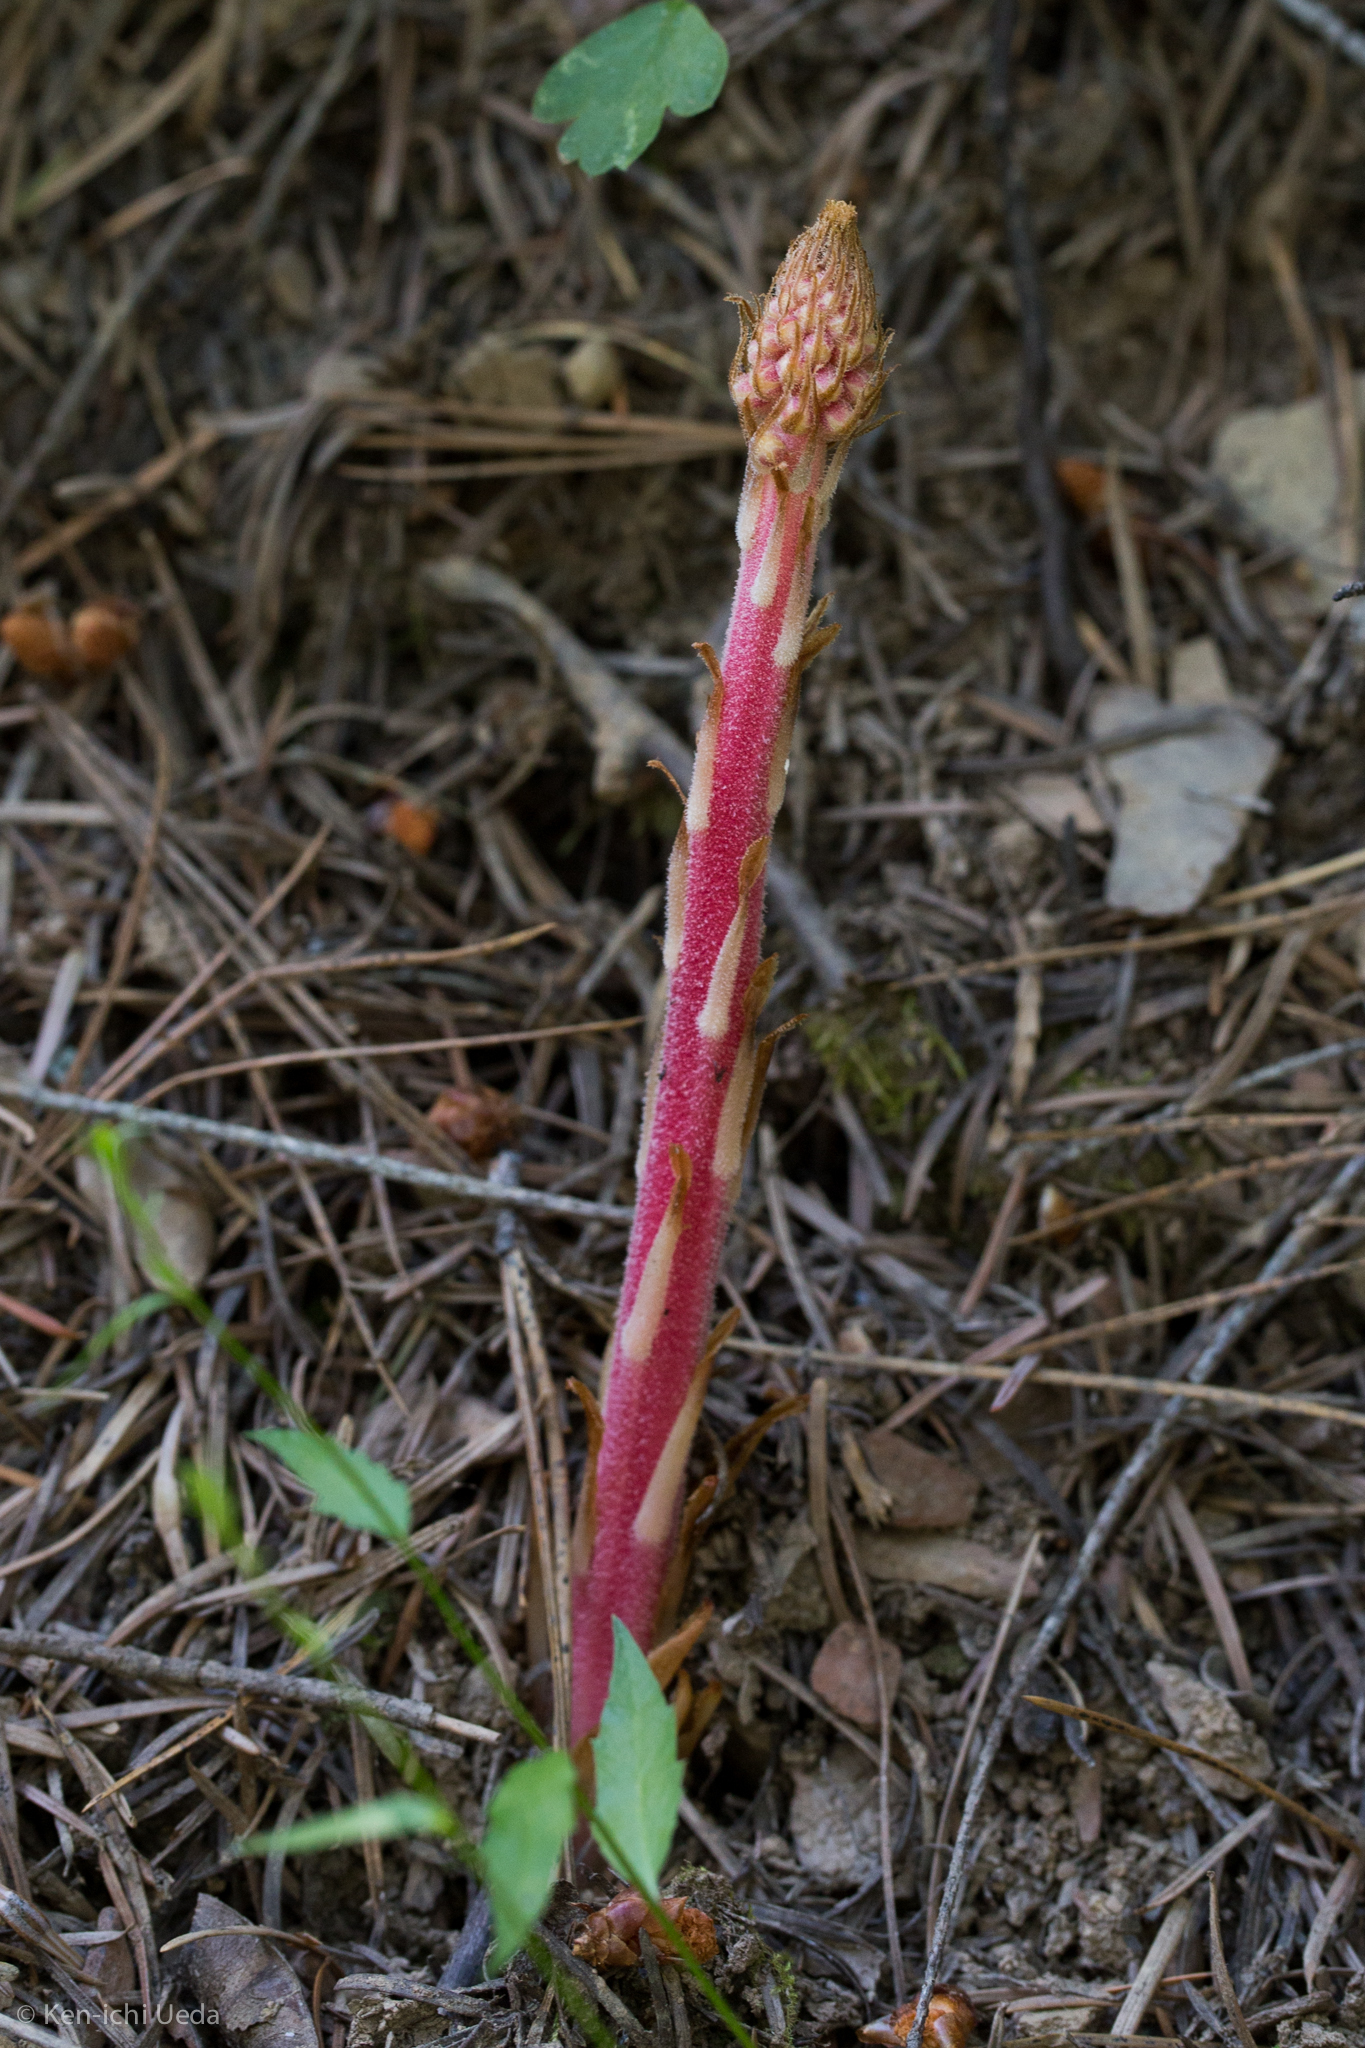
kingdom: Plantae
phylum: Tracheophyta
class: Magnoliopsida
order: Ericales
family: Ericaceae
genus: Pterospora
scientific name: Pterospora andromedea
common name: Giant bird's-nest
